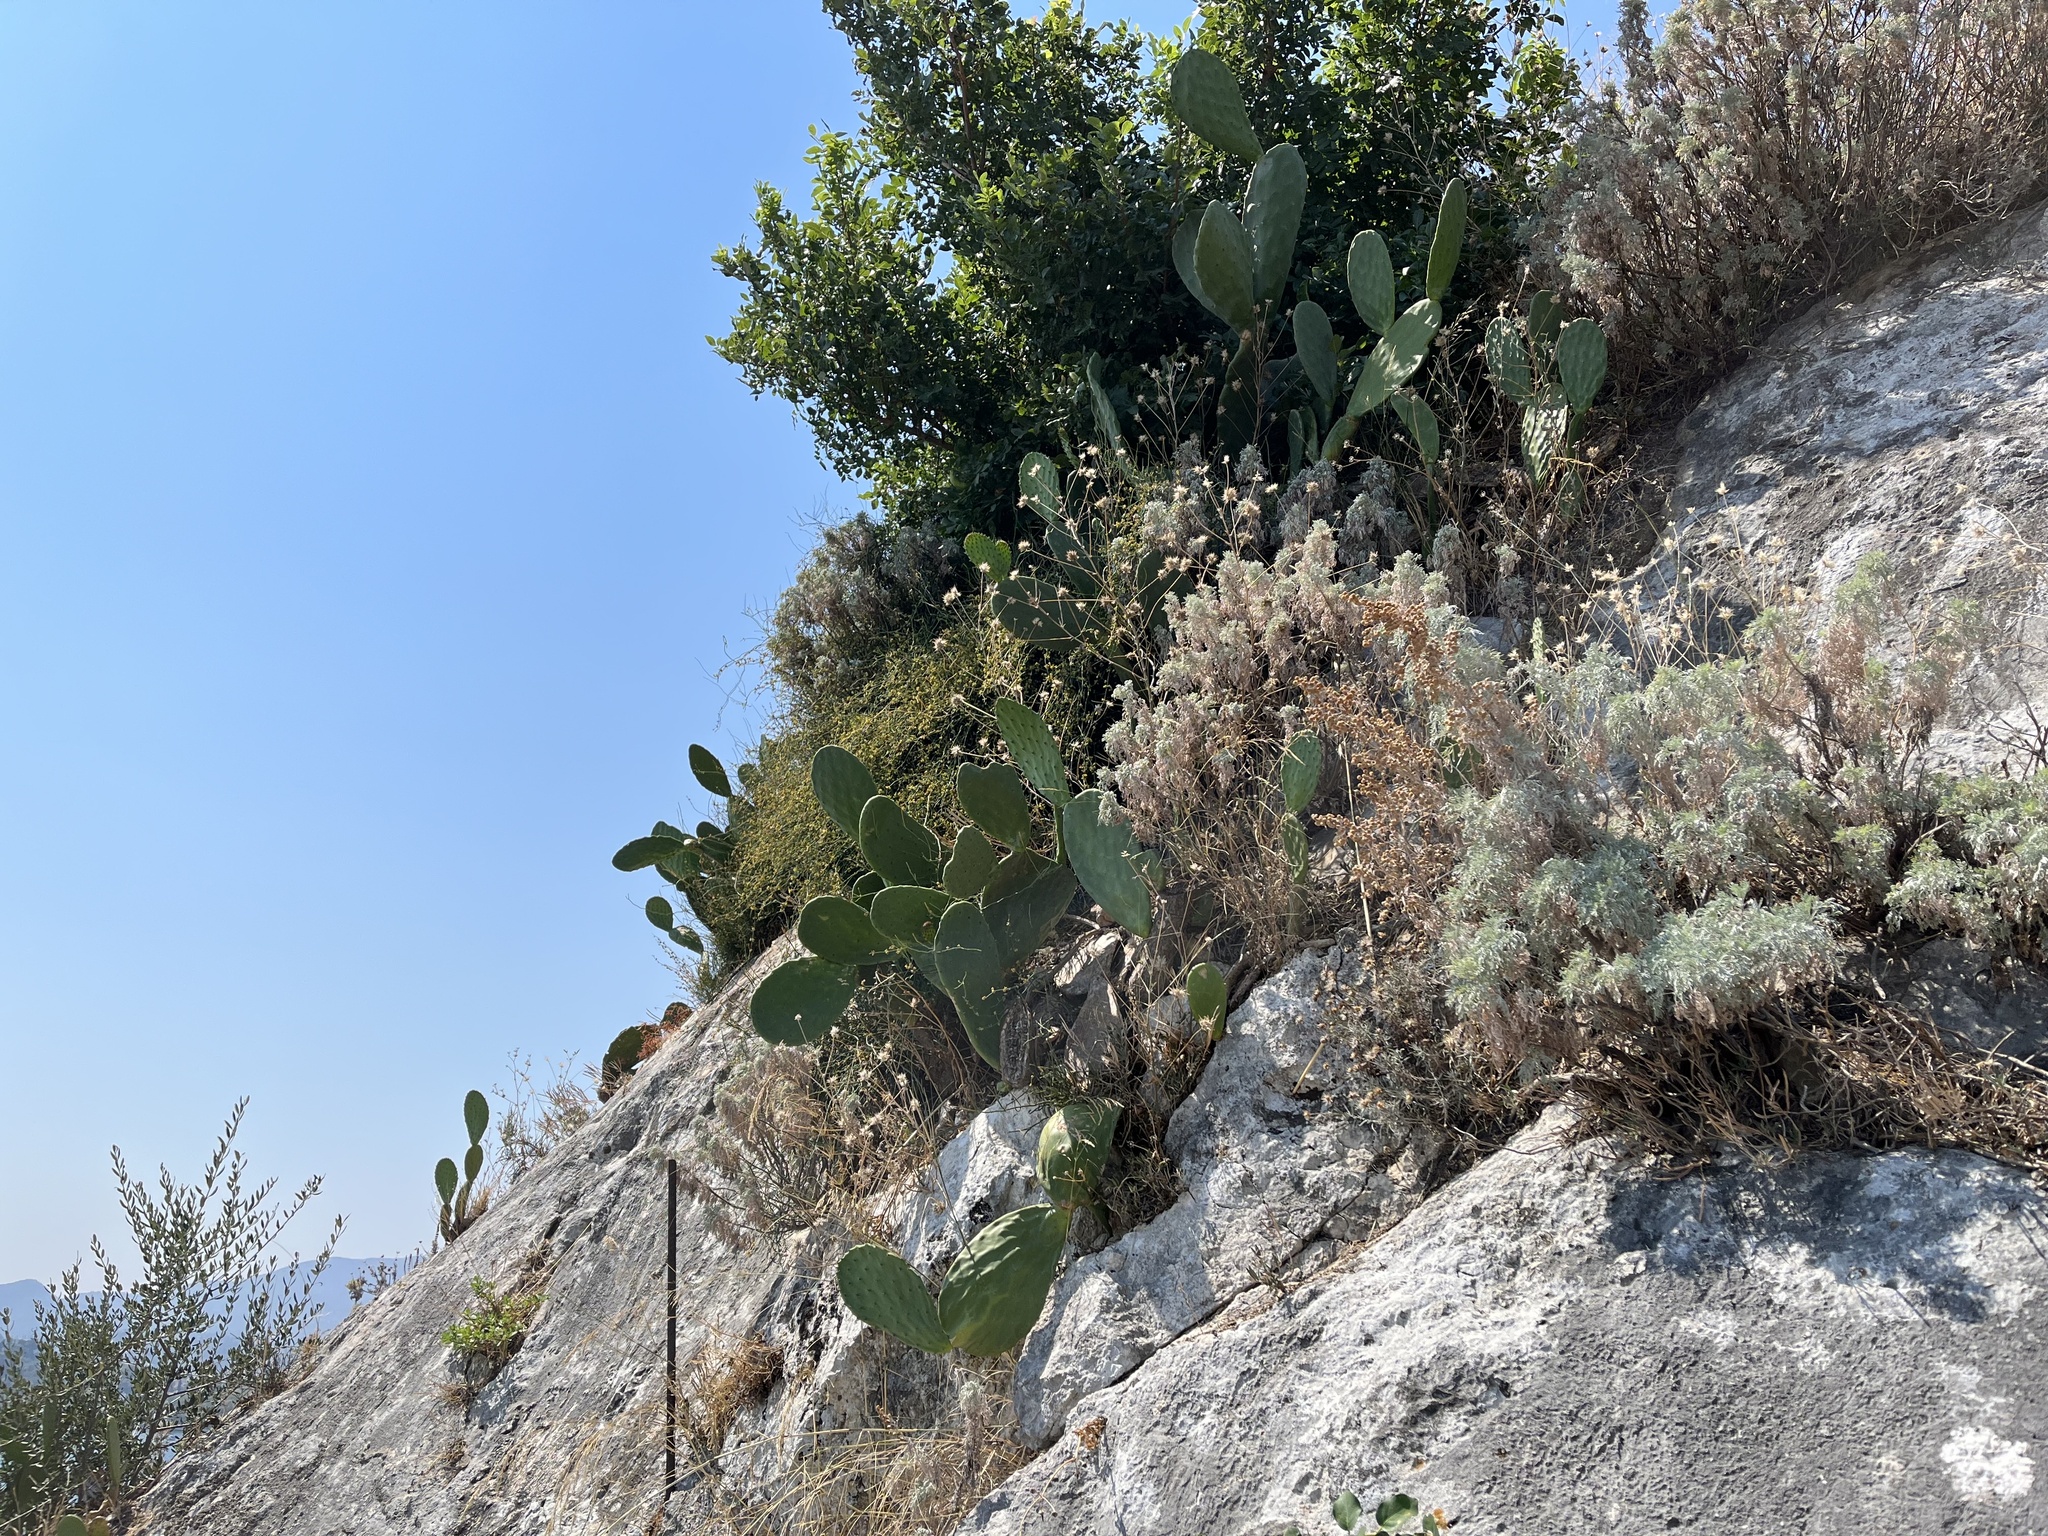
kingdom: Plantae
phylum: Tracheophyta
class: Magnoliopsida
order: Caryophyllales
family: Cactaceae
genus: Opuntia
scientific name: Opuntia ficus-indica
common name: Barbary fig
